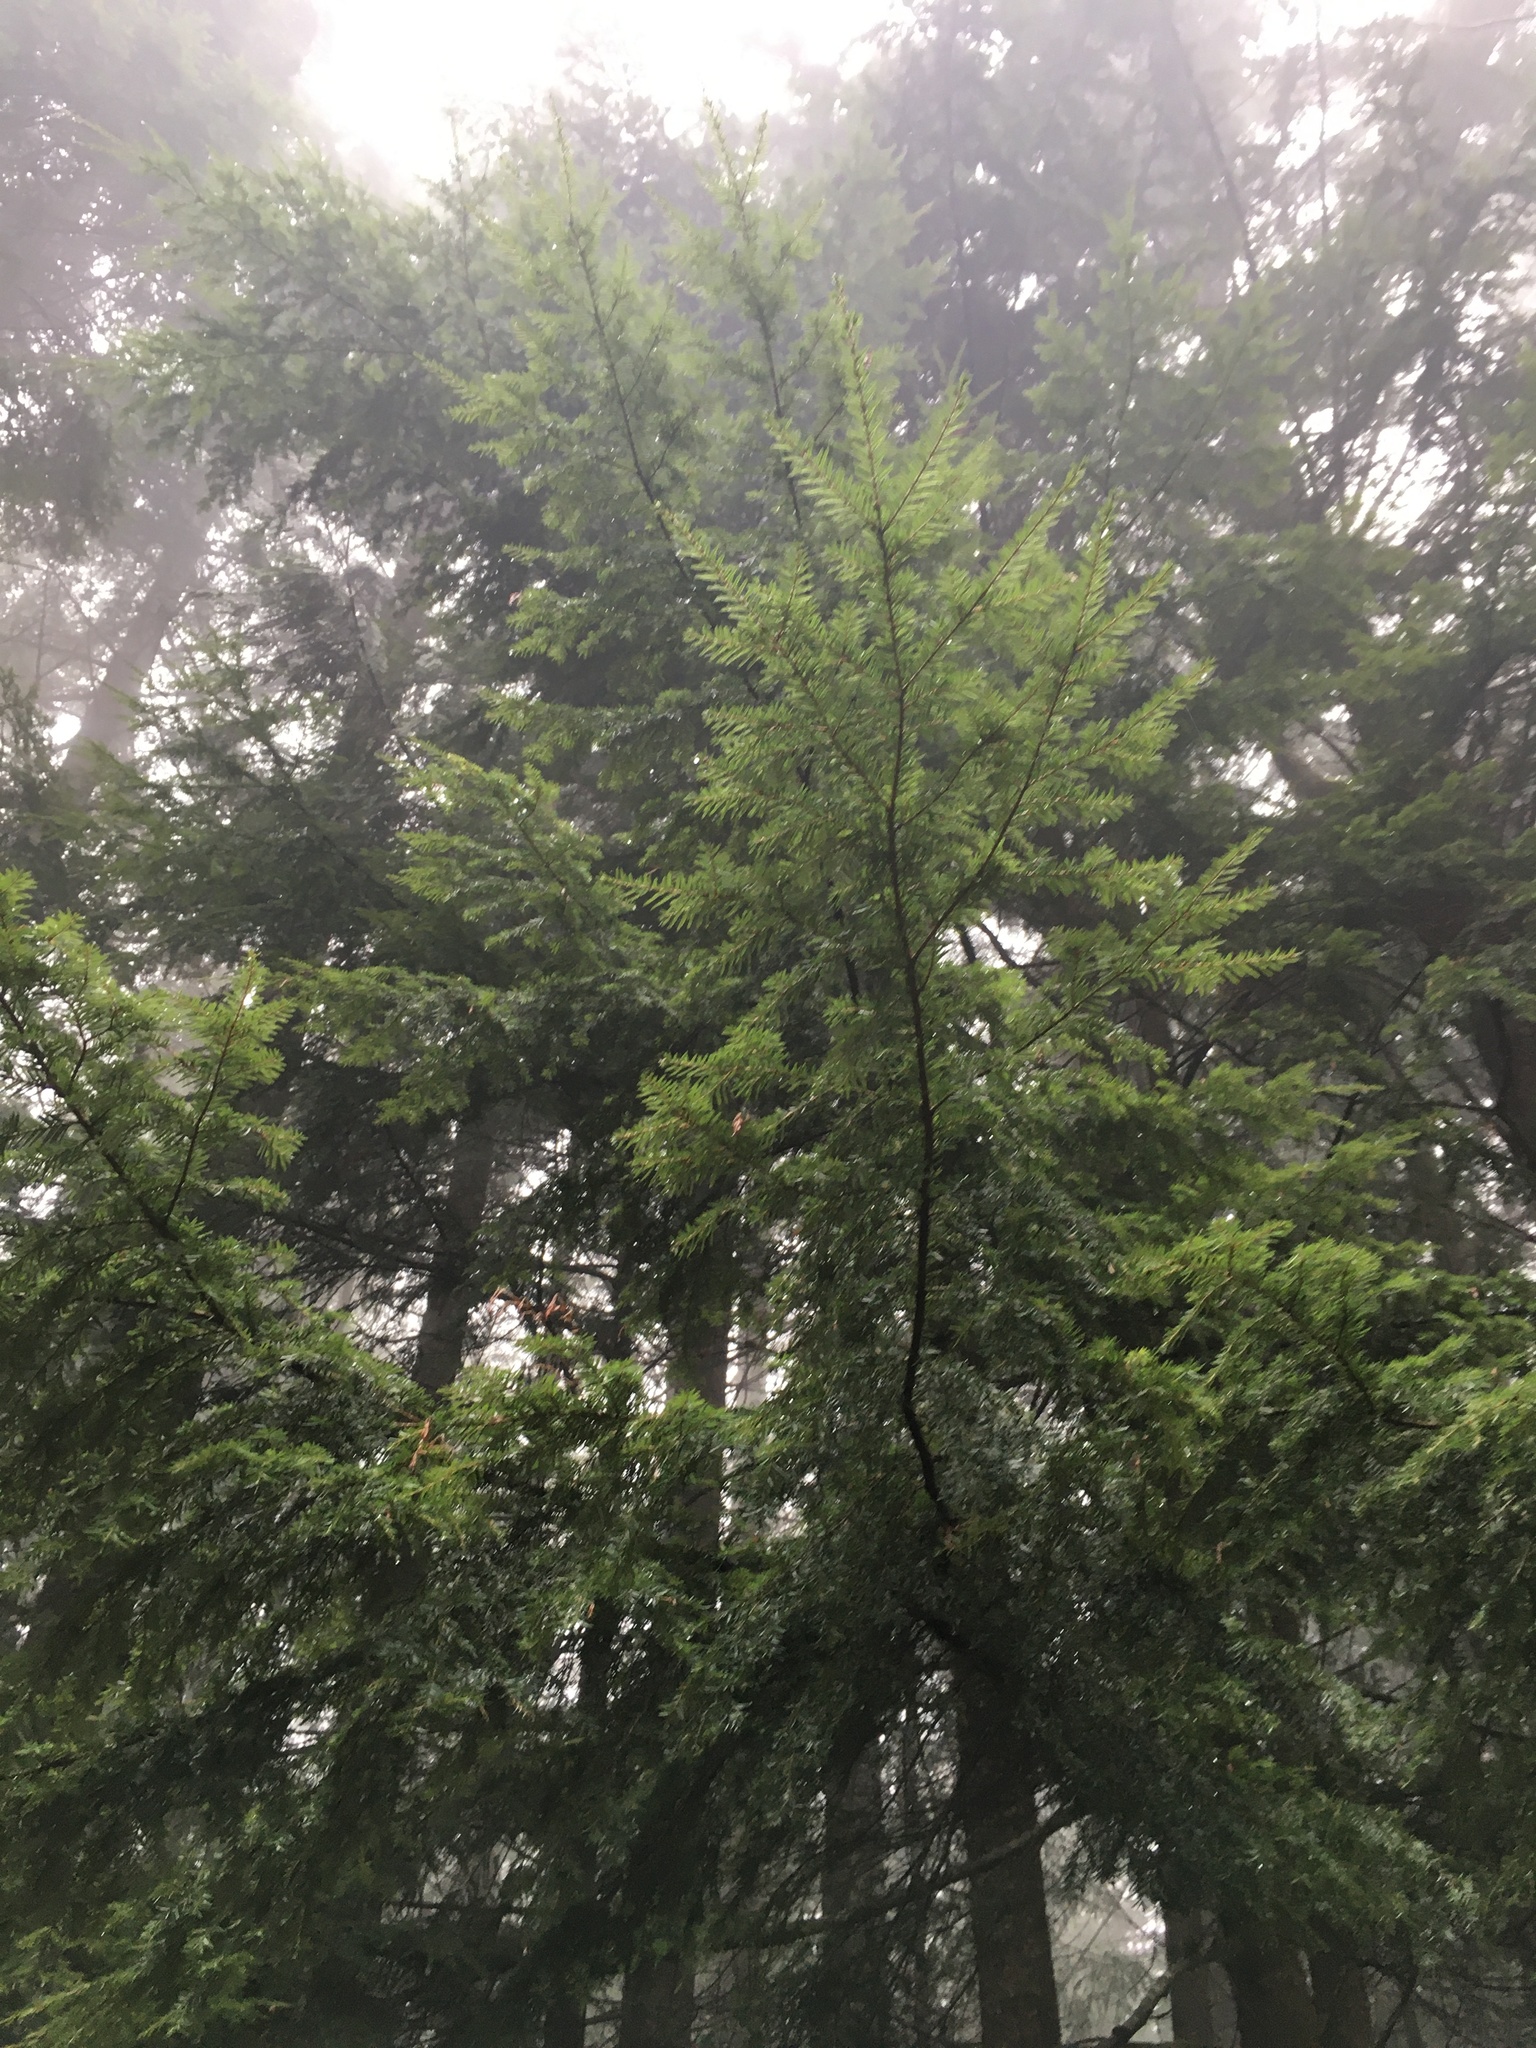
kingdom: Plantae
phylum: Tracheophyta
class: Pinopsida
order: Pinales
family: Pinaceae
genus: Tsuga
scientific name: Tsuga heterophylla
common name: Western hemlock
